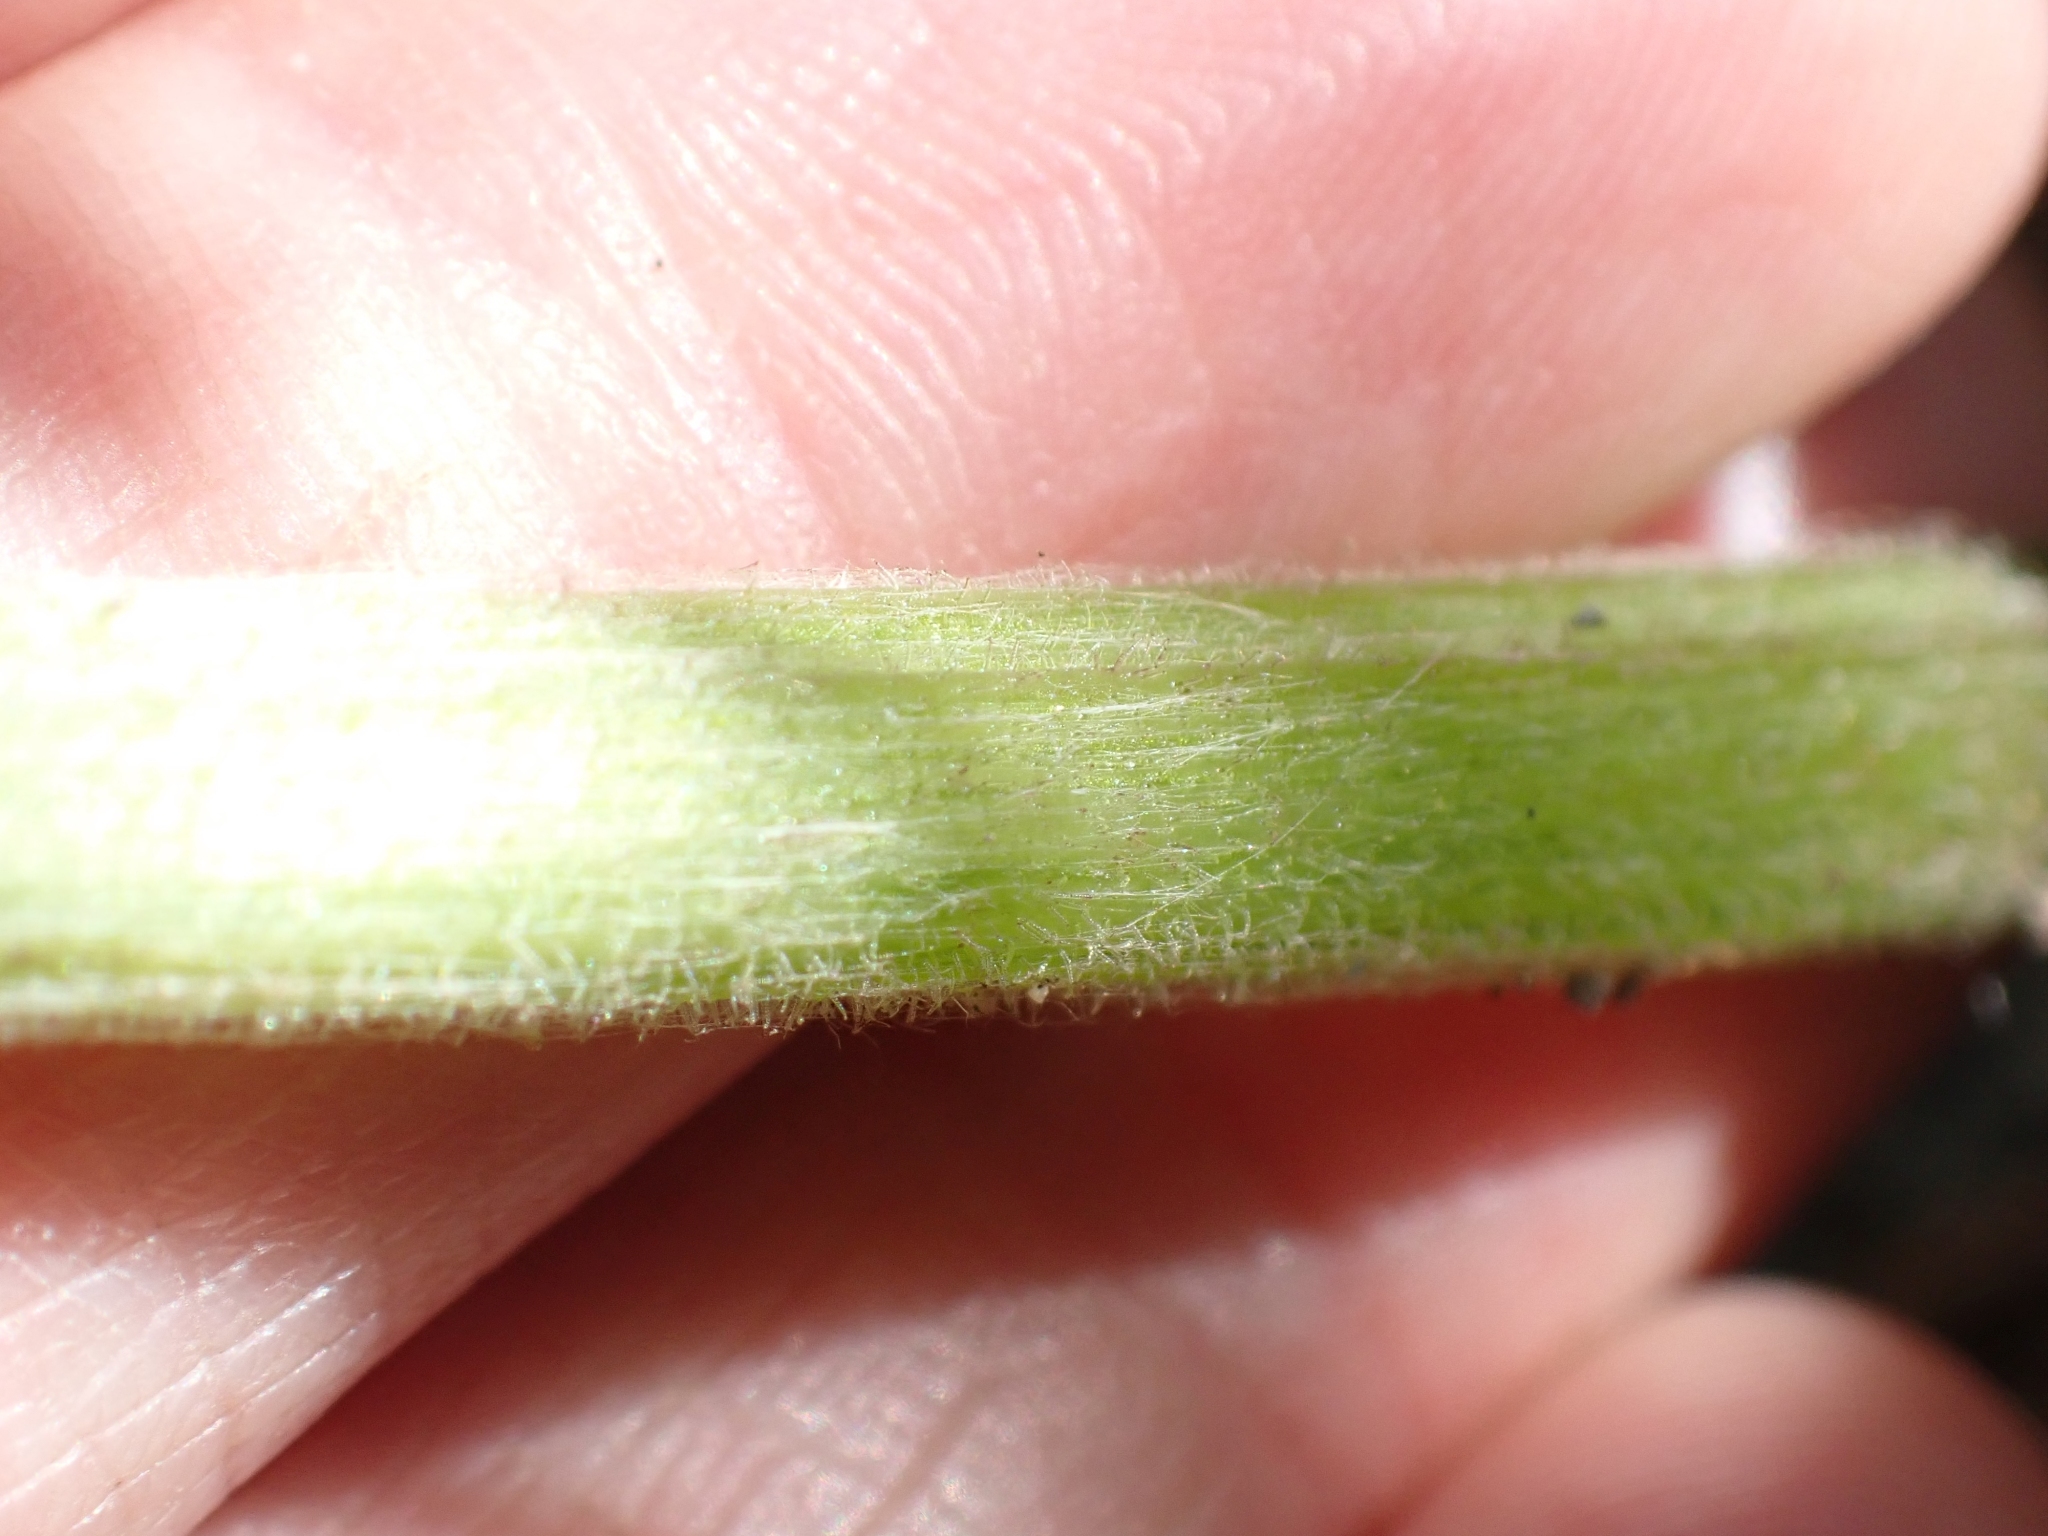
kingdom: Plantae
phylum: Tracheophyta
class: Magnoliopsida
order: Asterales
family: Asteraceae
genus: Petasites
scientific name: Petasites frigidus
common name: Arctic butterbur
